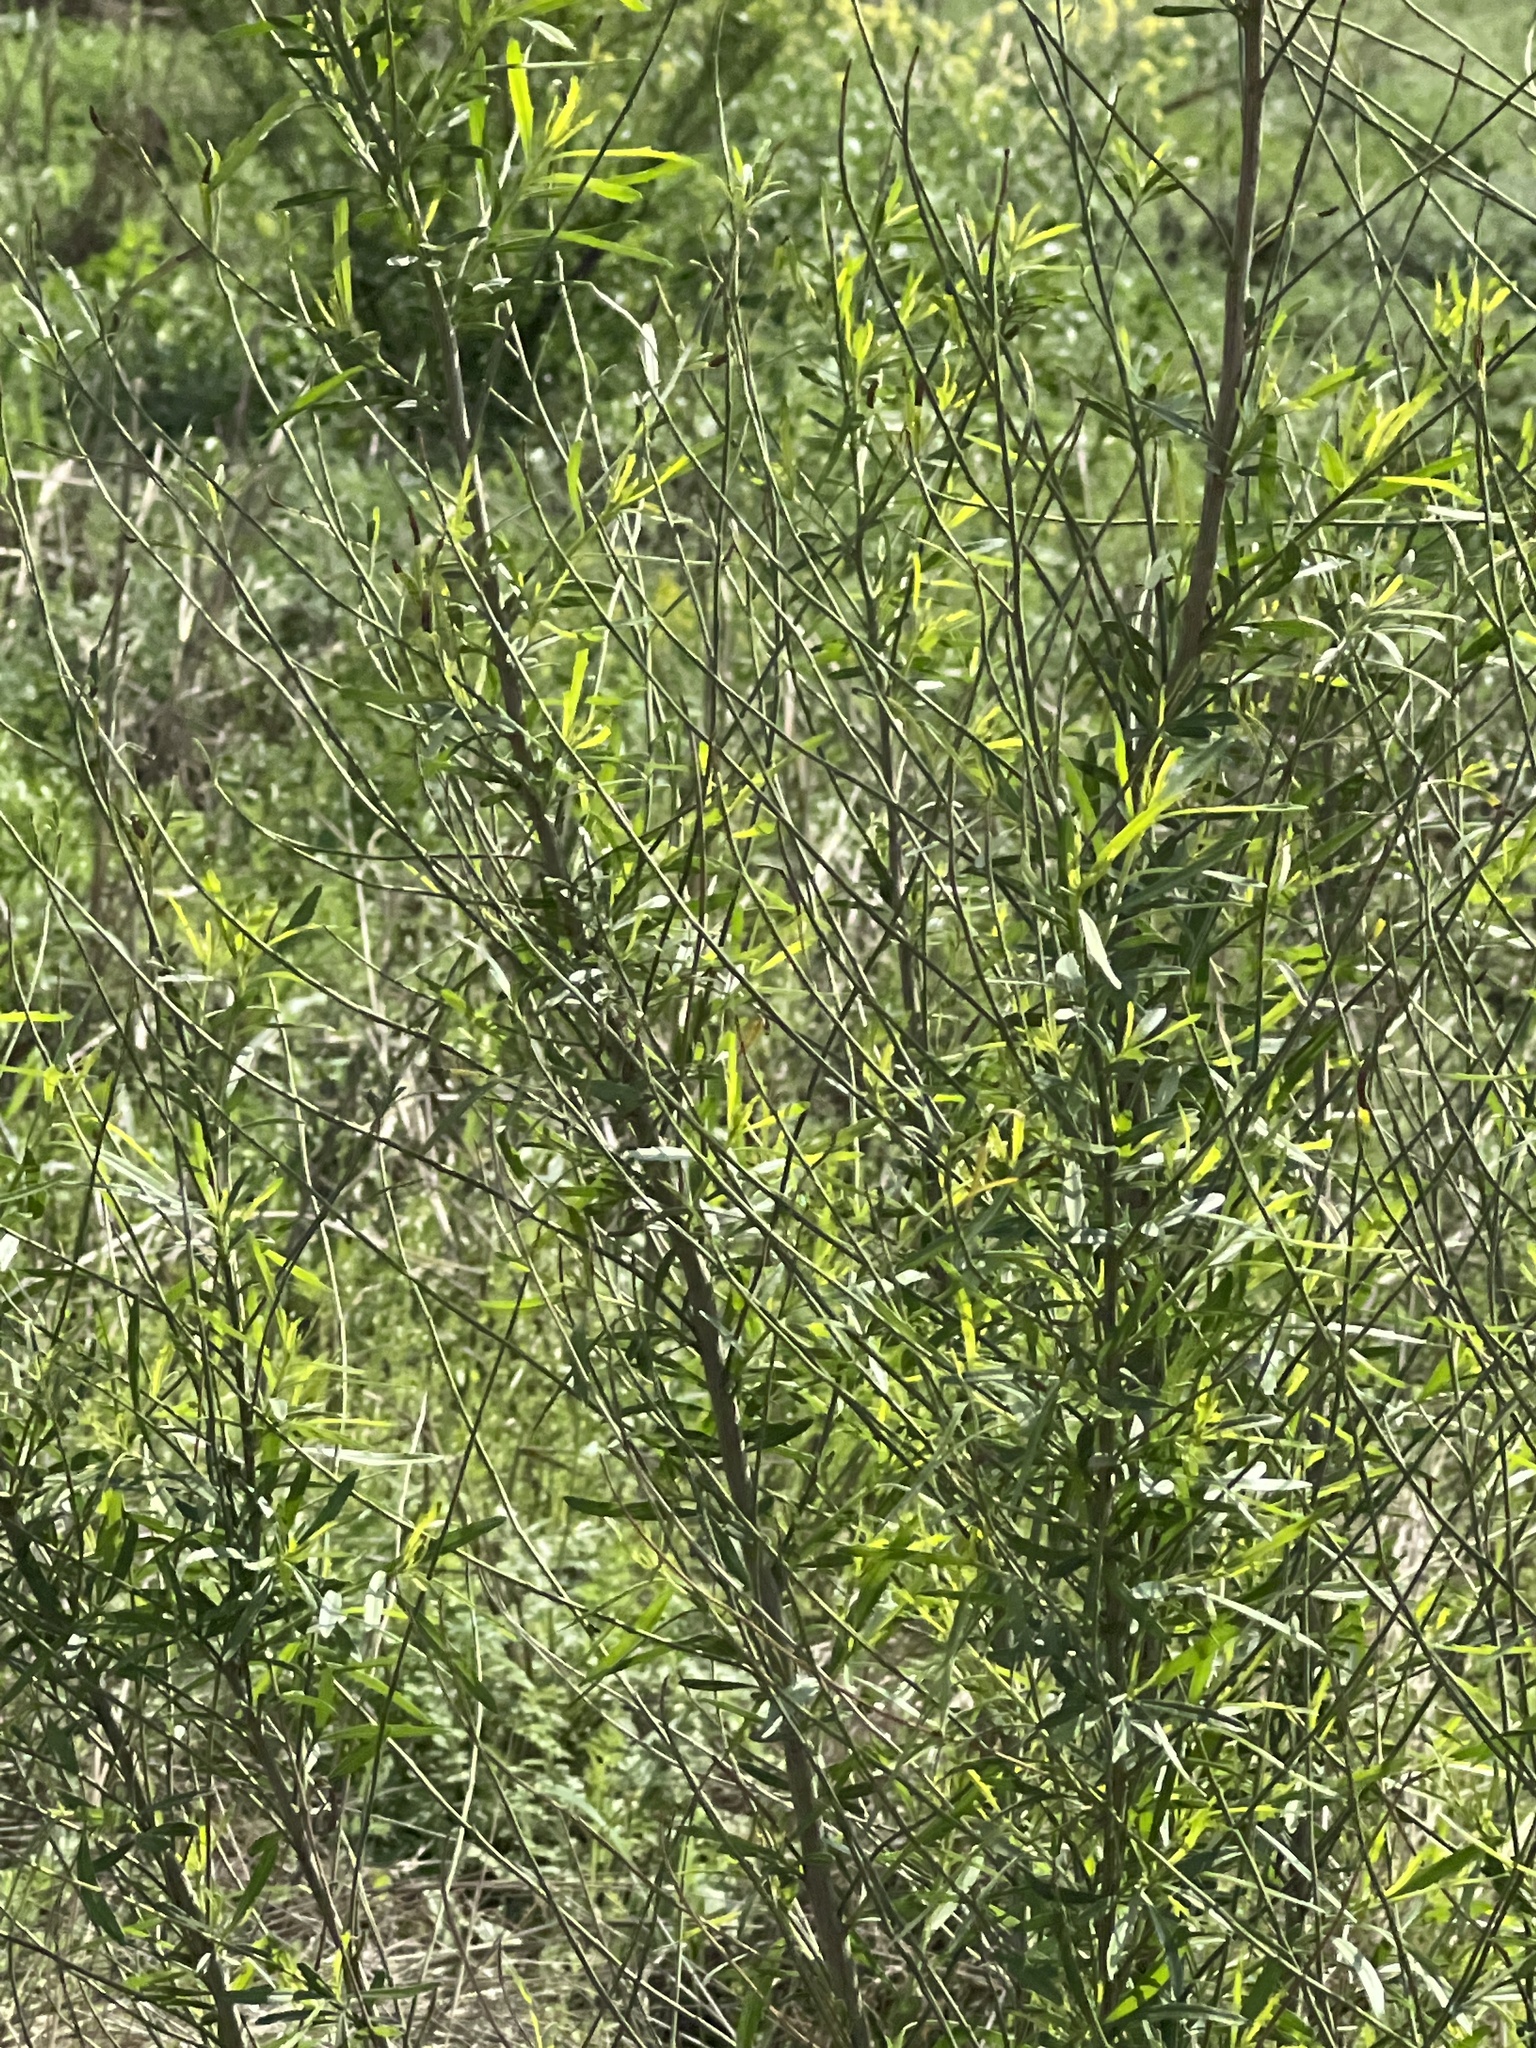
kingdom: Plantae
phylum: Tracheophyta
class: Magnoliopsida
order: Asterales
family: Asteraceae
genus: Baccharis
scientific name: Baccharis neglecta
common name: Roosevelt-weed
